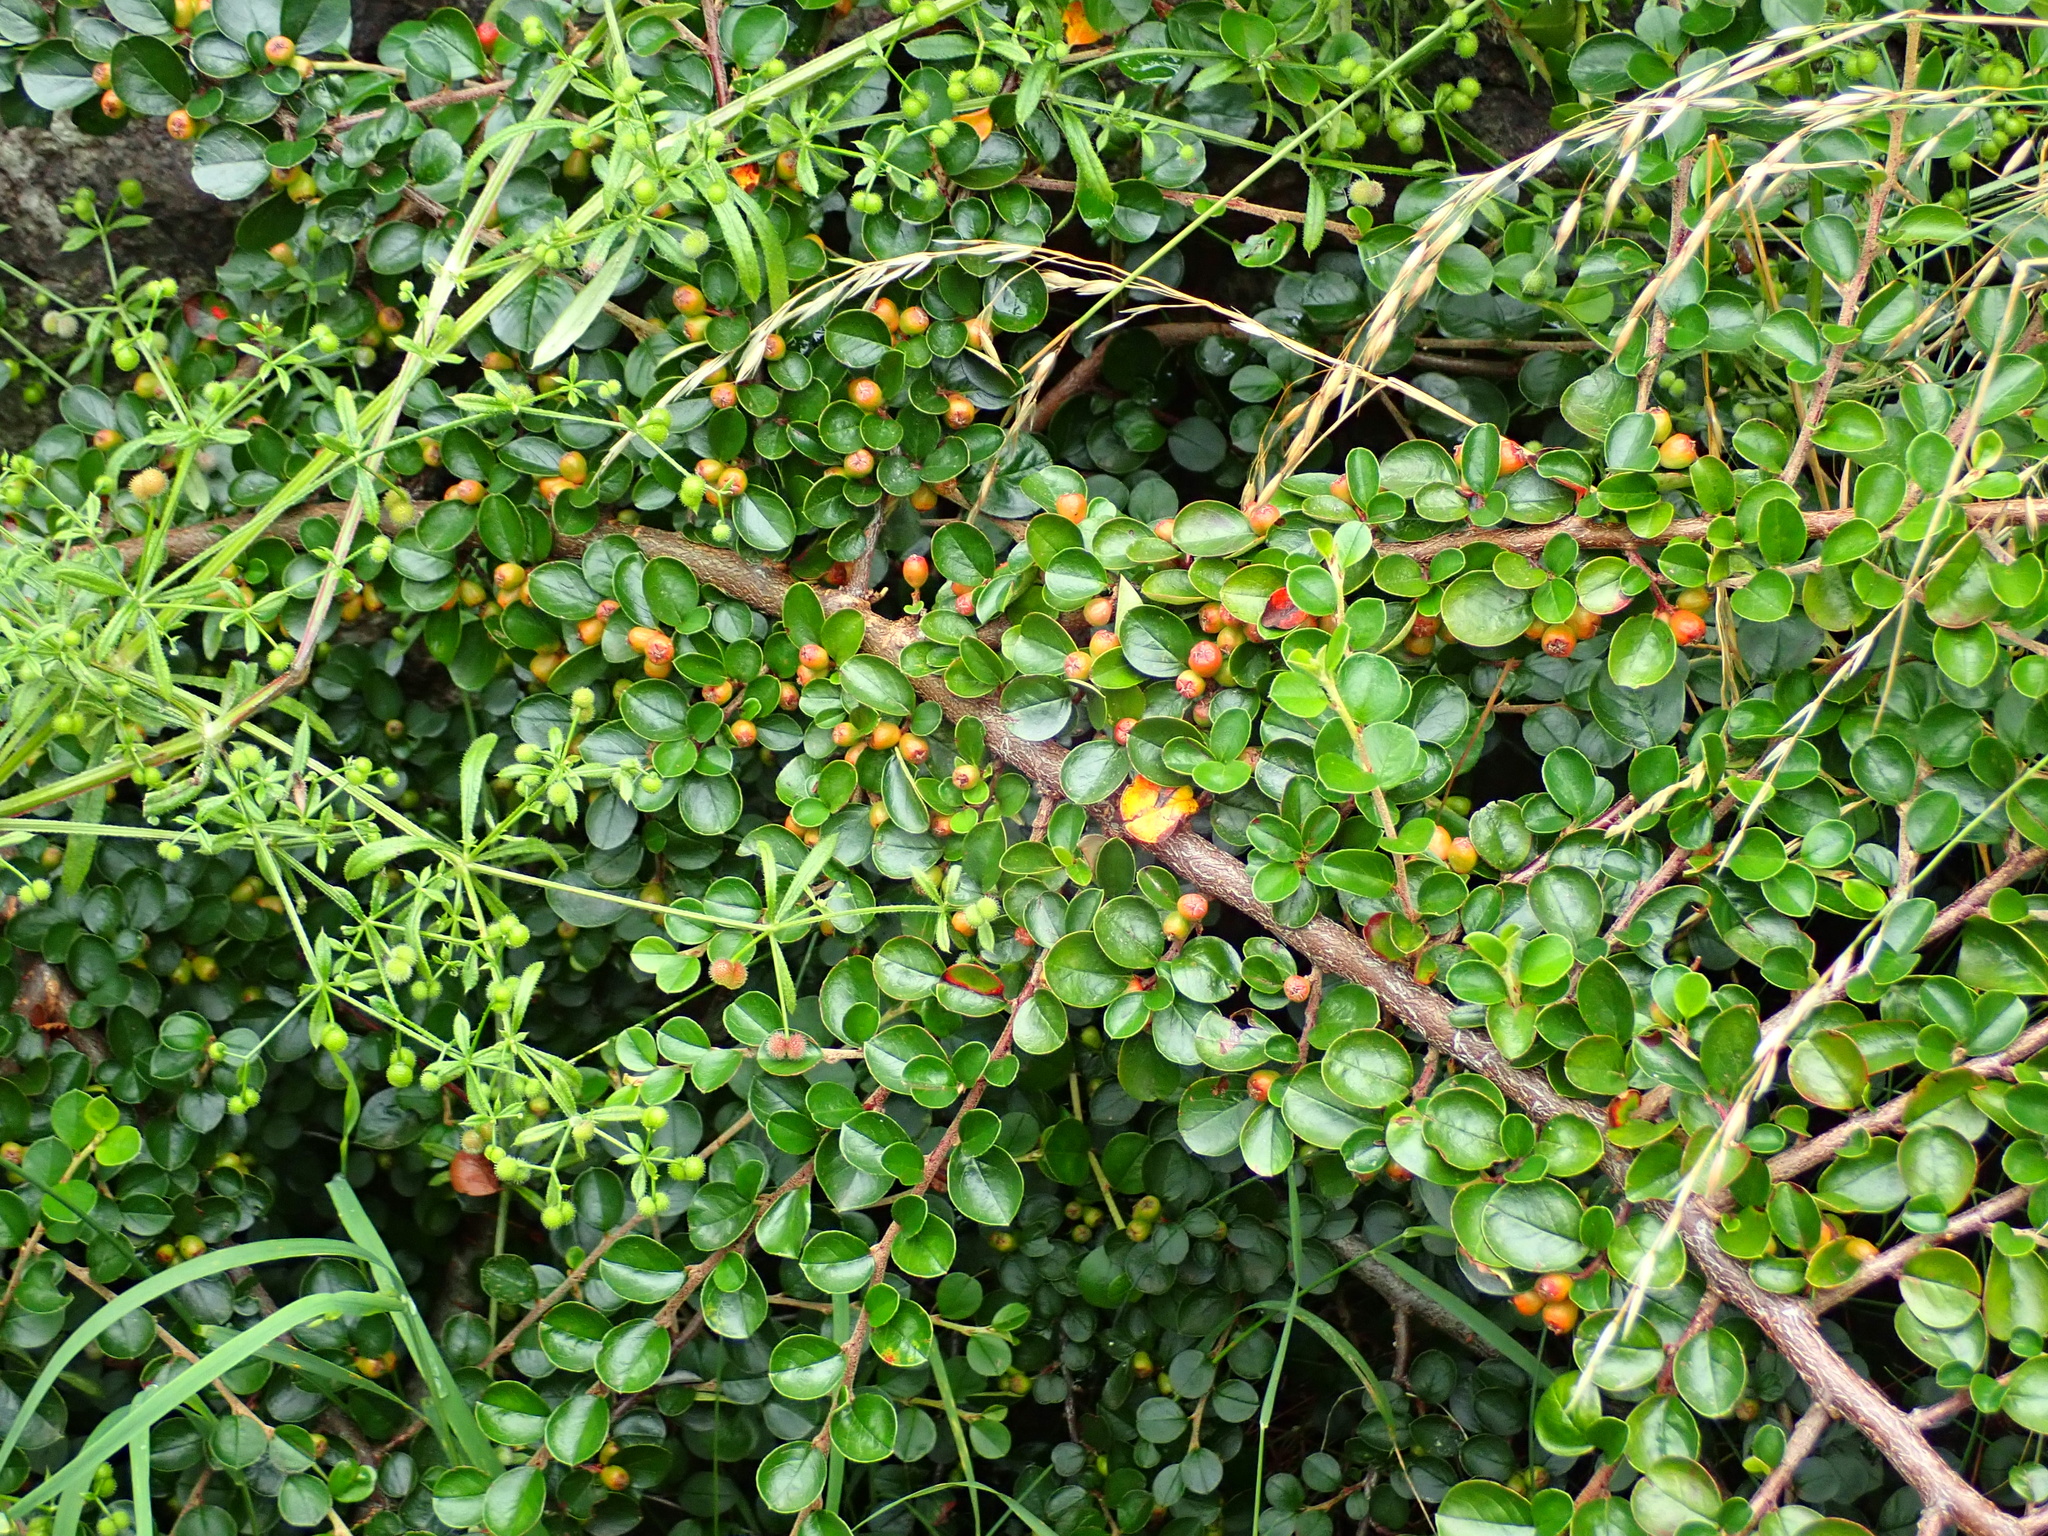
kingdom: Plantae
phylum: Tracheophyta
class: Magnoliopsida
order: Rosales
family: Rosaceae
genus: Cotoneaster
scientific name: Cotoneaster horizontalis
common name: Wall cotoneaster
